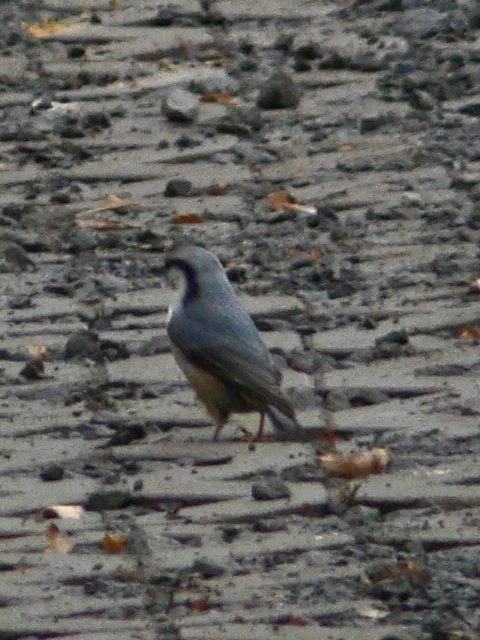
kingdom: Animalia
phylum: Chordata
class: Aves
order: Passeriformes
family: Sittidae
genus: Sitta
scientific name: Sitta europaea
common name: Eurasian nuthatch
